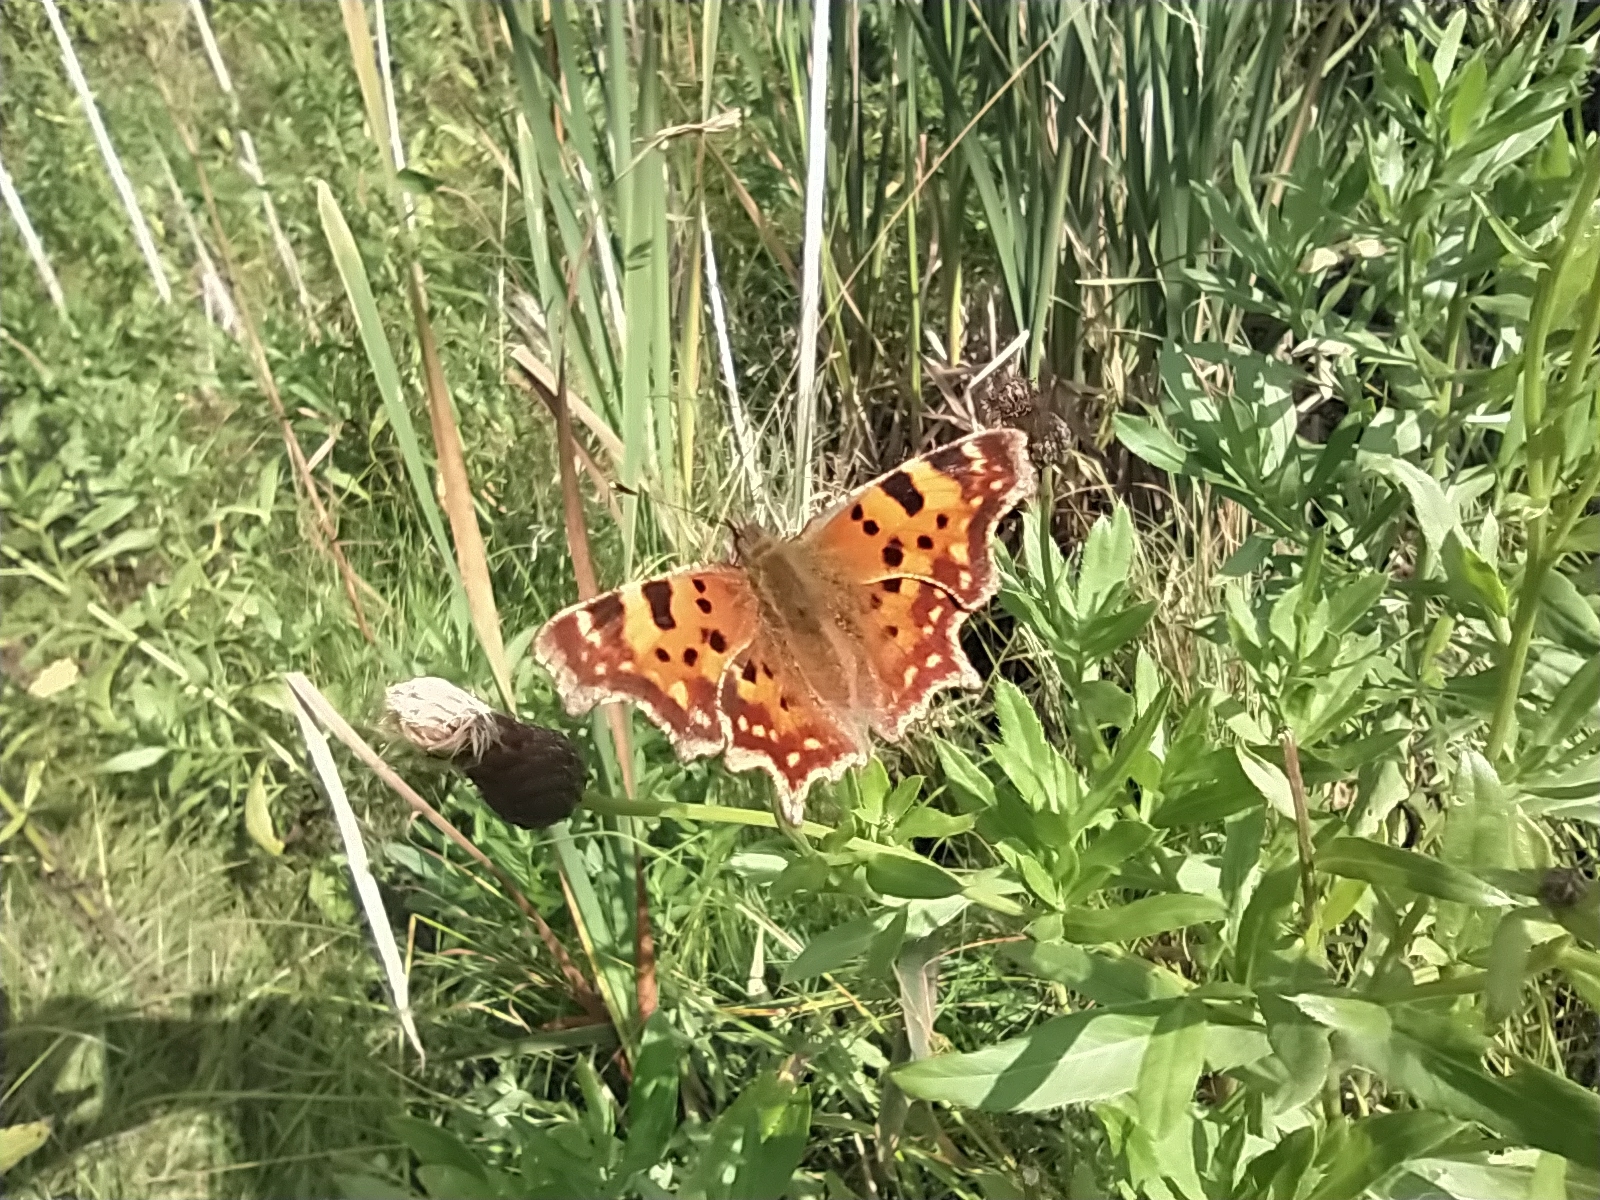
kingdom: Animalia
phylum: Arthropoda
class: Insecta
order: Lepidoptera
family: Nymphalidae
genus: Polygonia
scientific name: Polygonia c-album
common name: Comma
